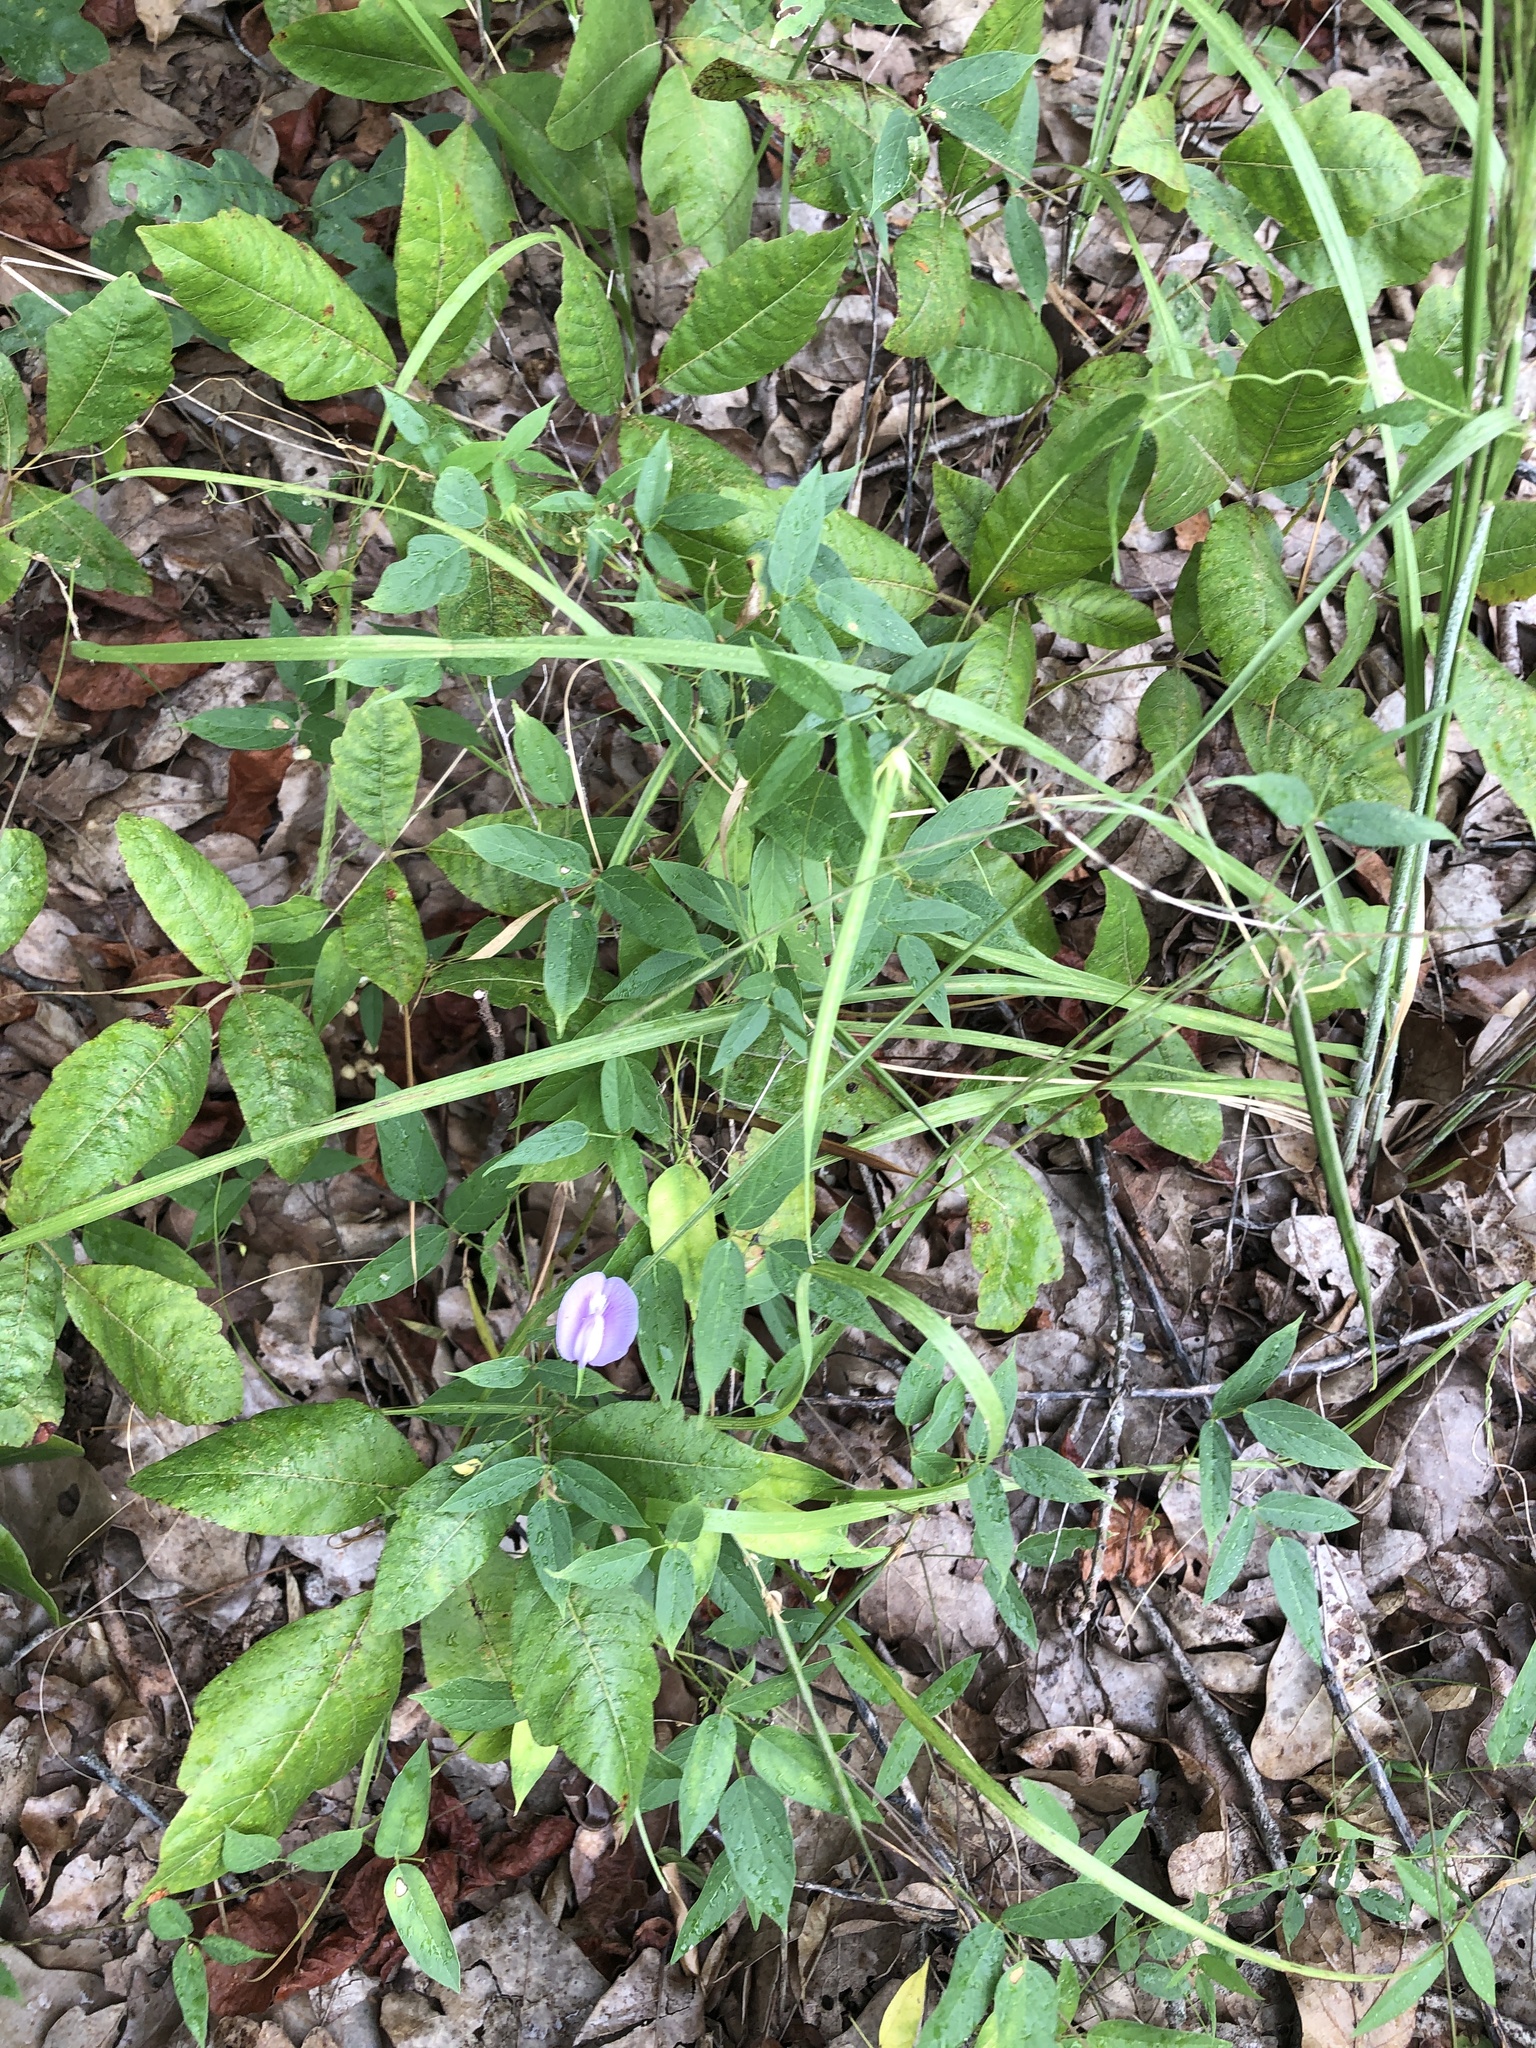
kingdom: Plantae
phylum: Tracheophyta
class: Magnoliopsida
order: Fabales
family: Fabaceae
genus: Centrosema
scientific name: Centrosema virginianum
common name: Butterfly-pea
